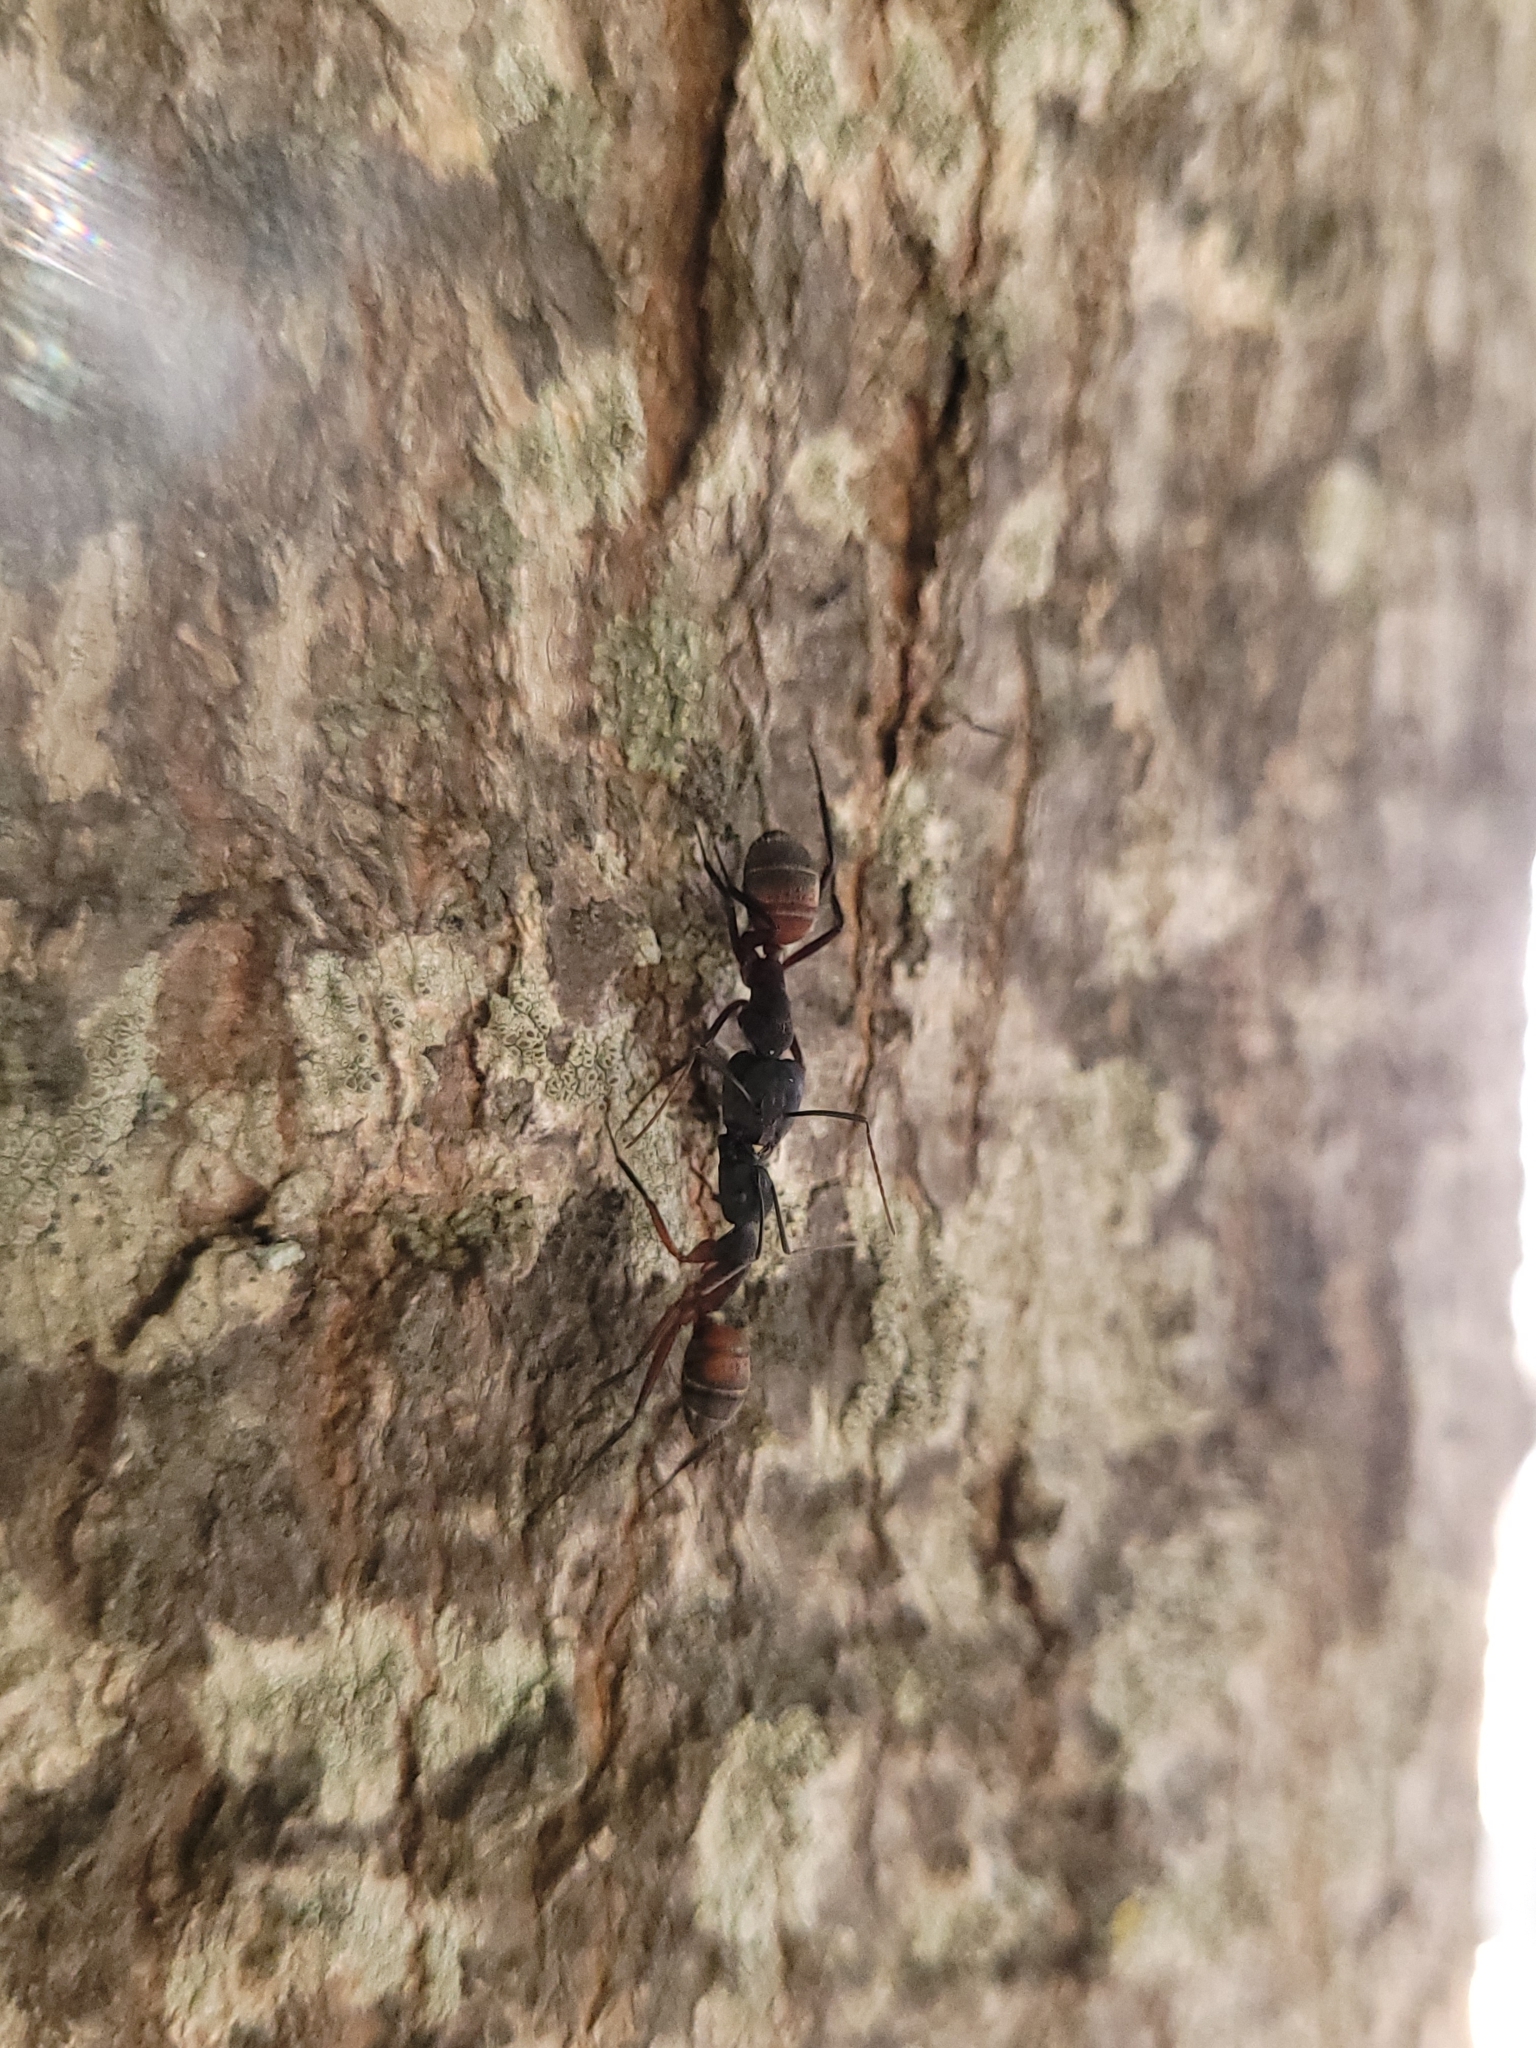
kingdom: Animalia
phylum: Arthropoda
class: Insecta
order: Hymenoptera
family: Formicidae
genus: Camponotus
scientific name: Camponotus cruentatus
